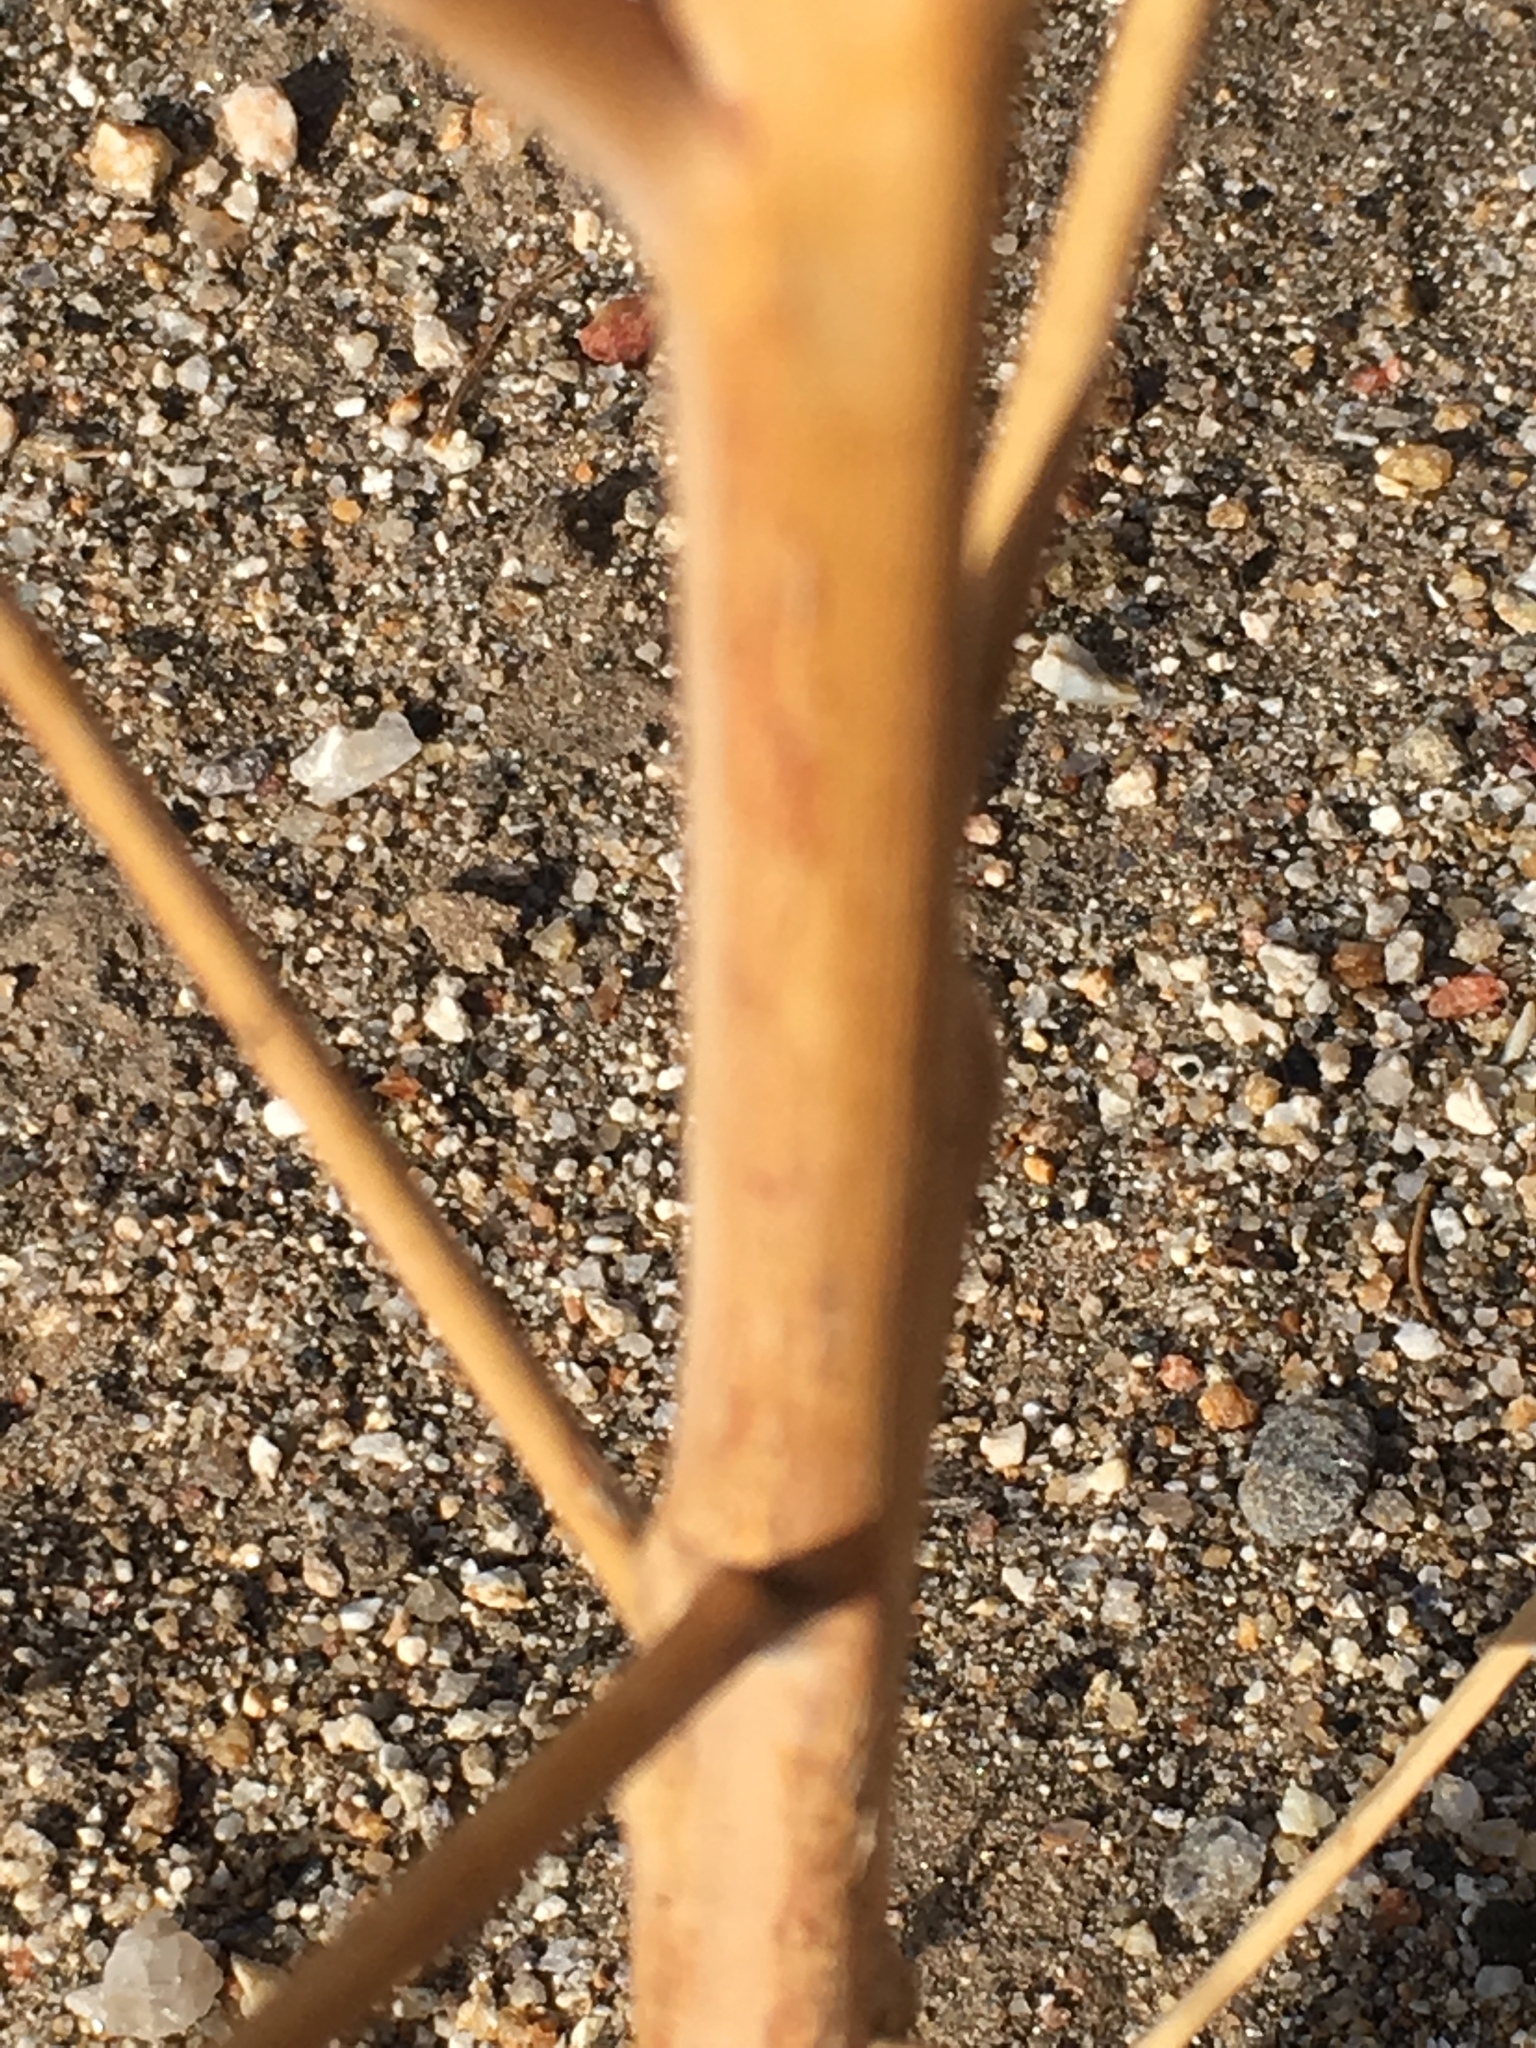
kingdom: Plantae
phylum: Tracheophyta
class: Magnoliopsida
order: Myrtales
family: Onagraceae
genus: Eulobus
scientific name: Eulobus californicus
